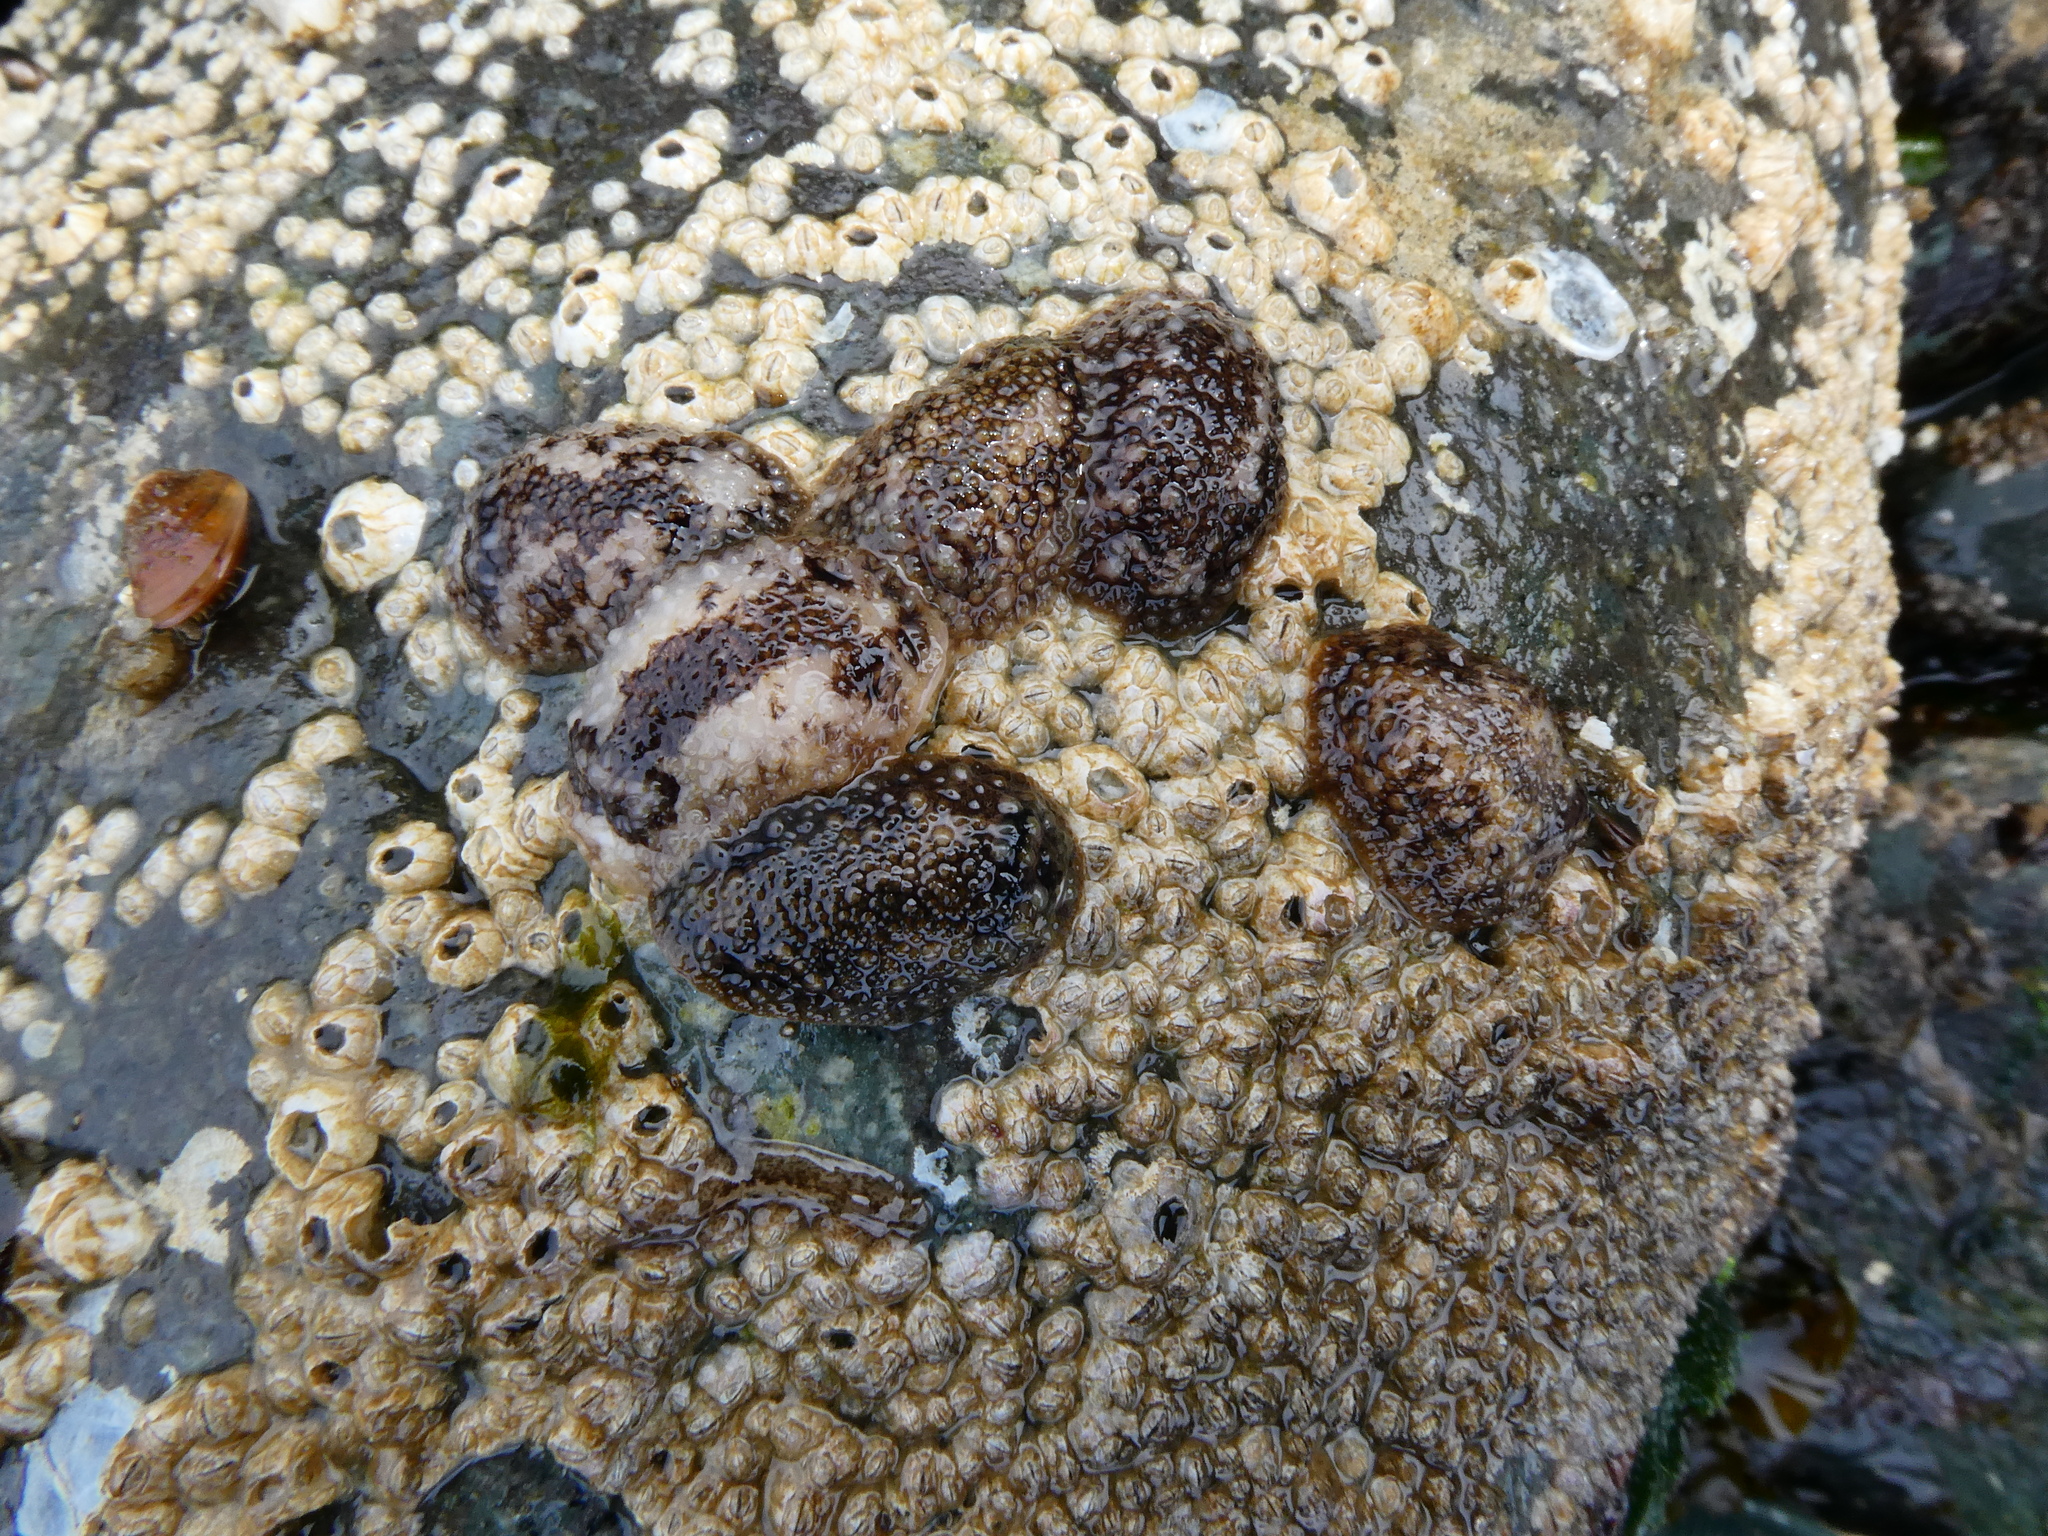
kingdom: Animalia
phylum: Mollusca
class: Gastropoda
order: Nudibranchia
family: Onchidorididae
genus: Onchidoris
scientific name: Onchidoris bilamellata
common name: Barnacle-eating onchidoris
